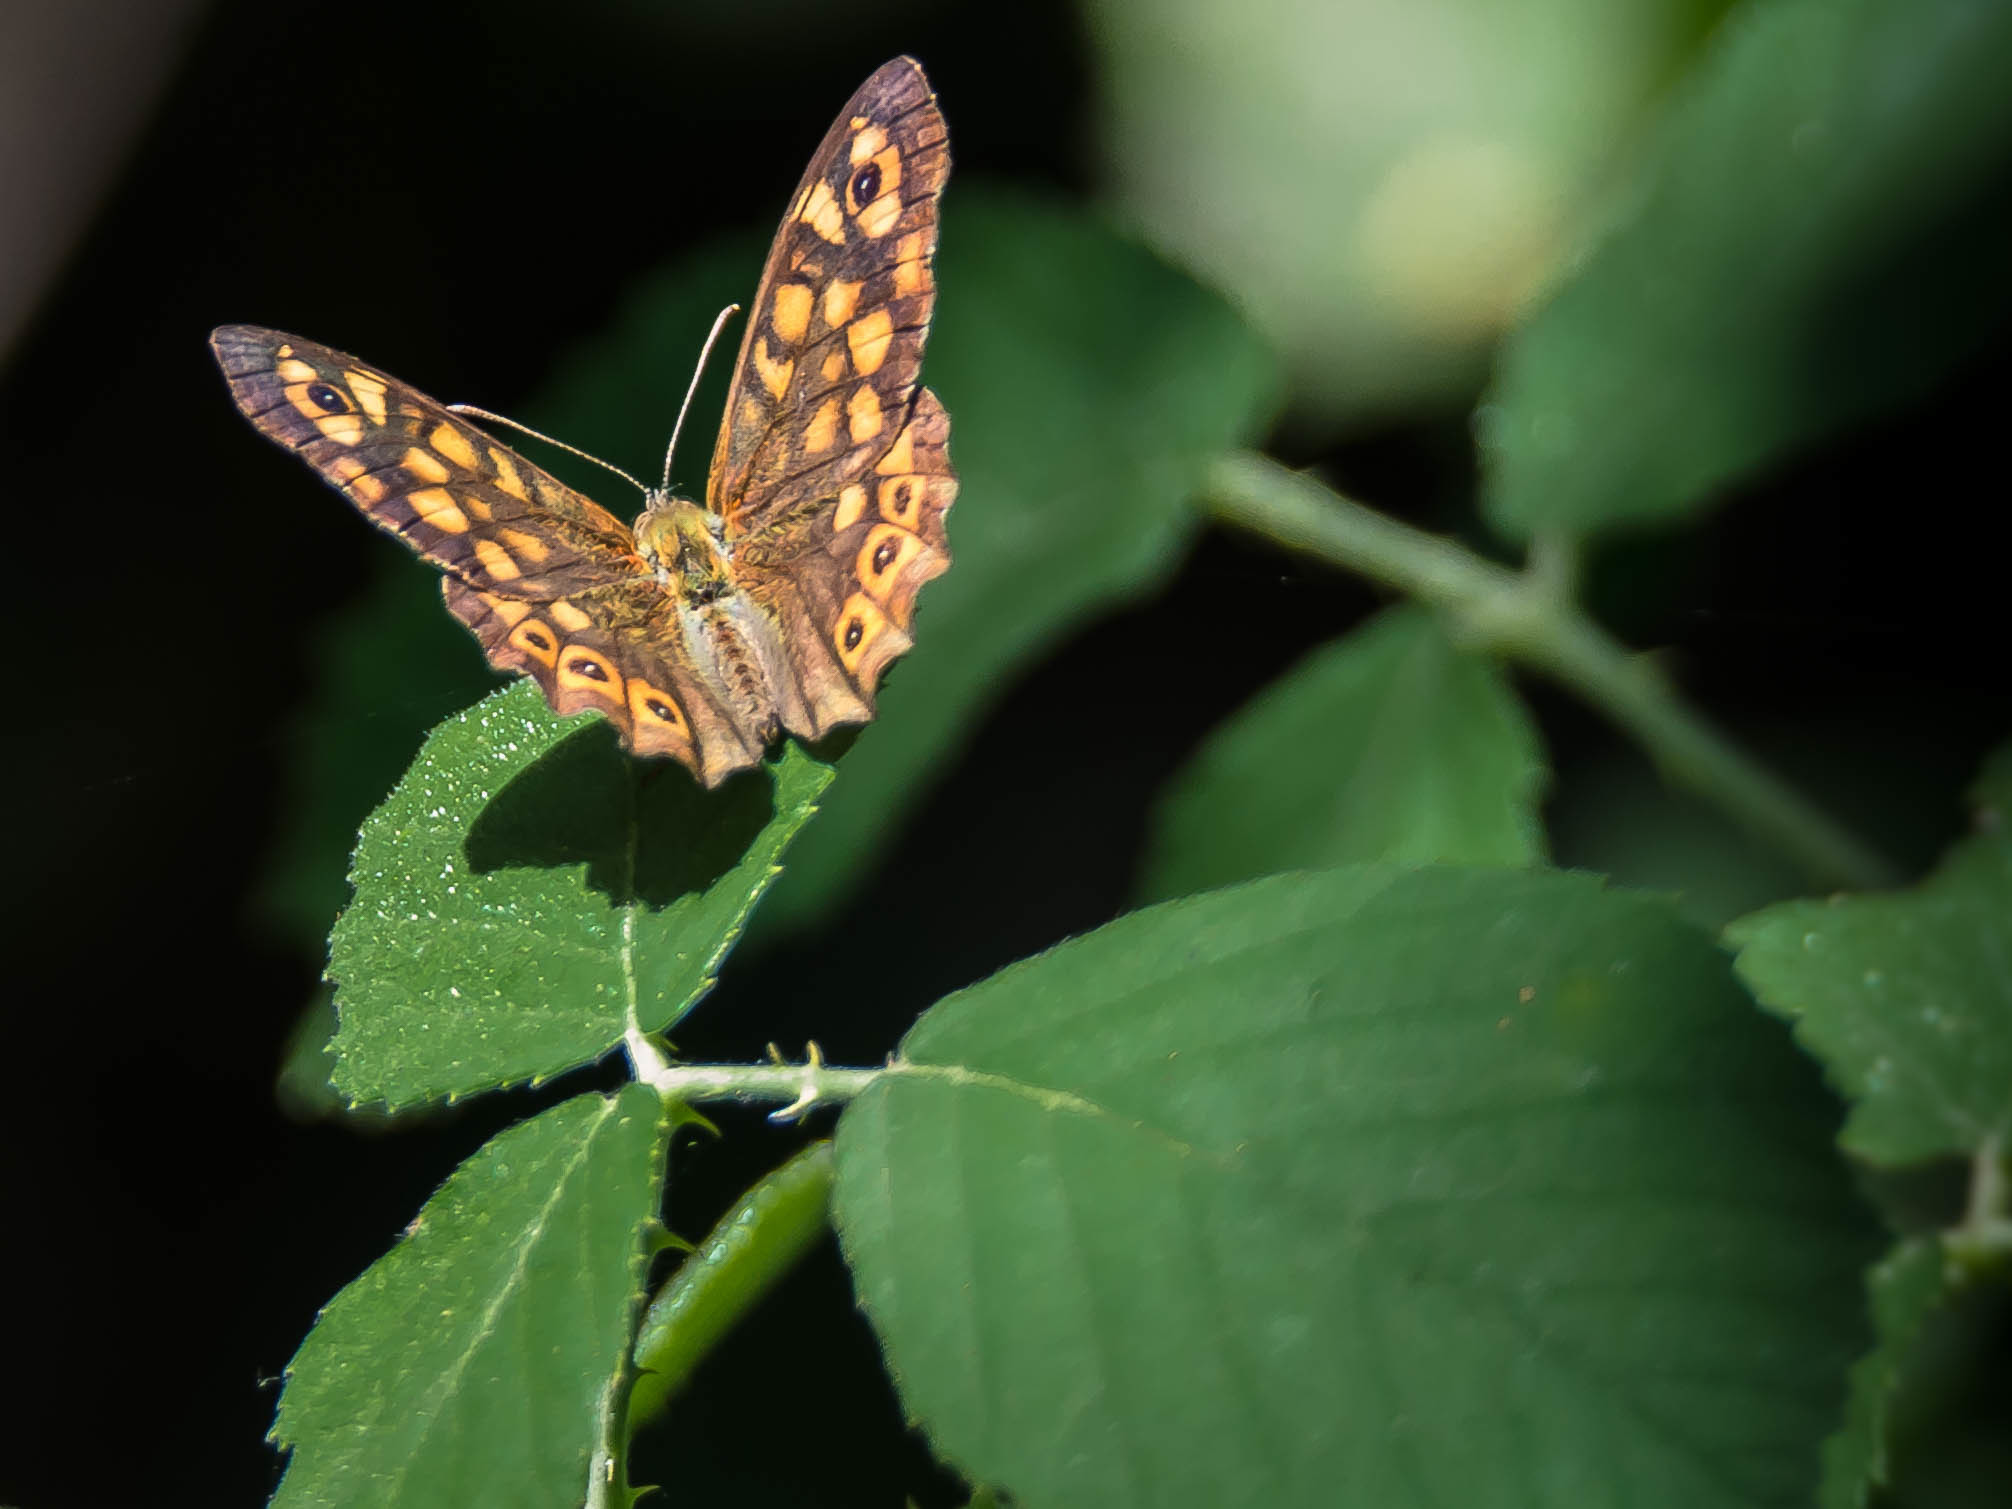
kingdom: Animalia
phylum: Arthropoda
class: Insecta
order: Lepidoptera
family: Nymphalidae
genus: Pararge
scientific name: Pararge aegeria
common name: Speckled wood
